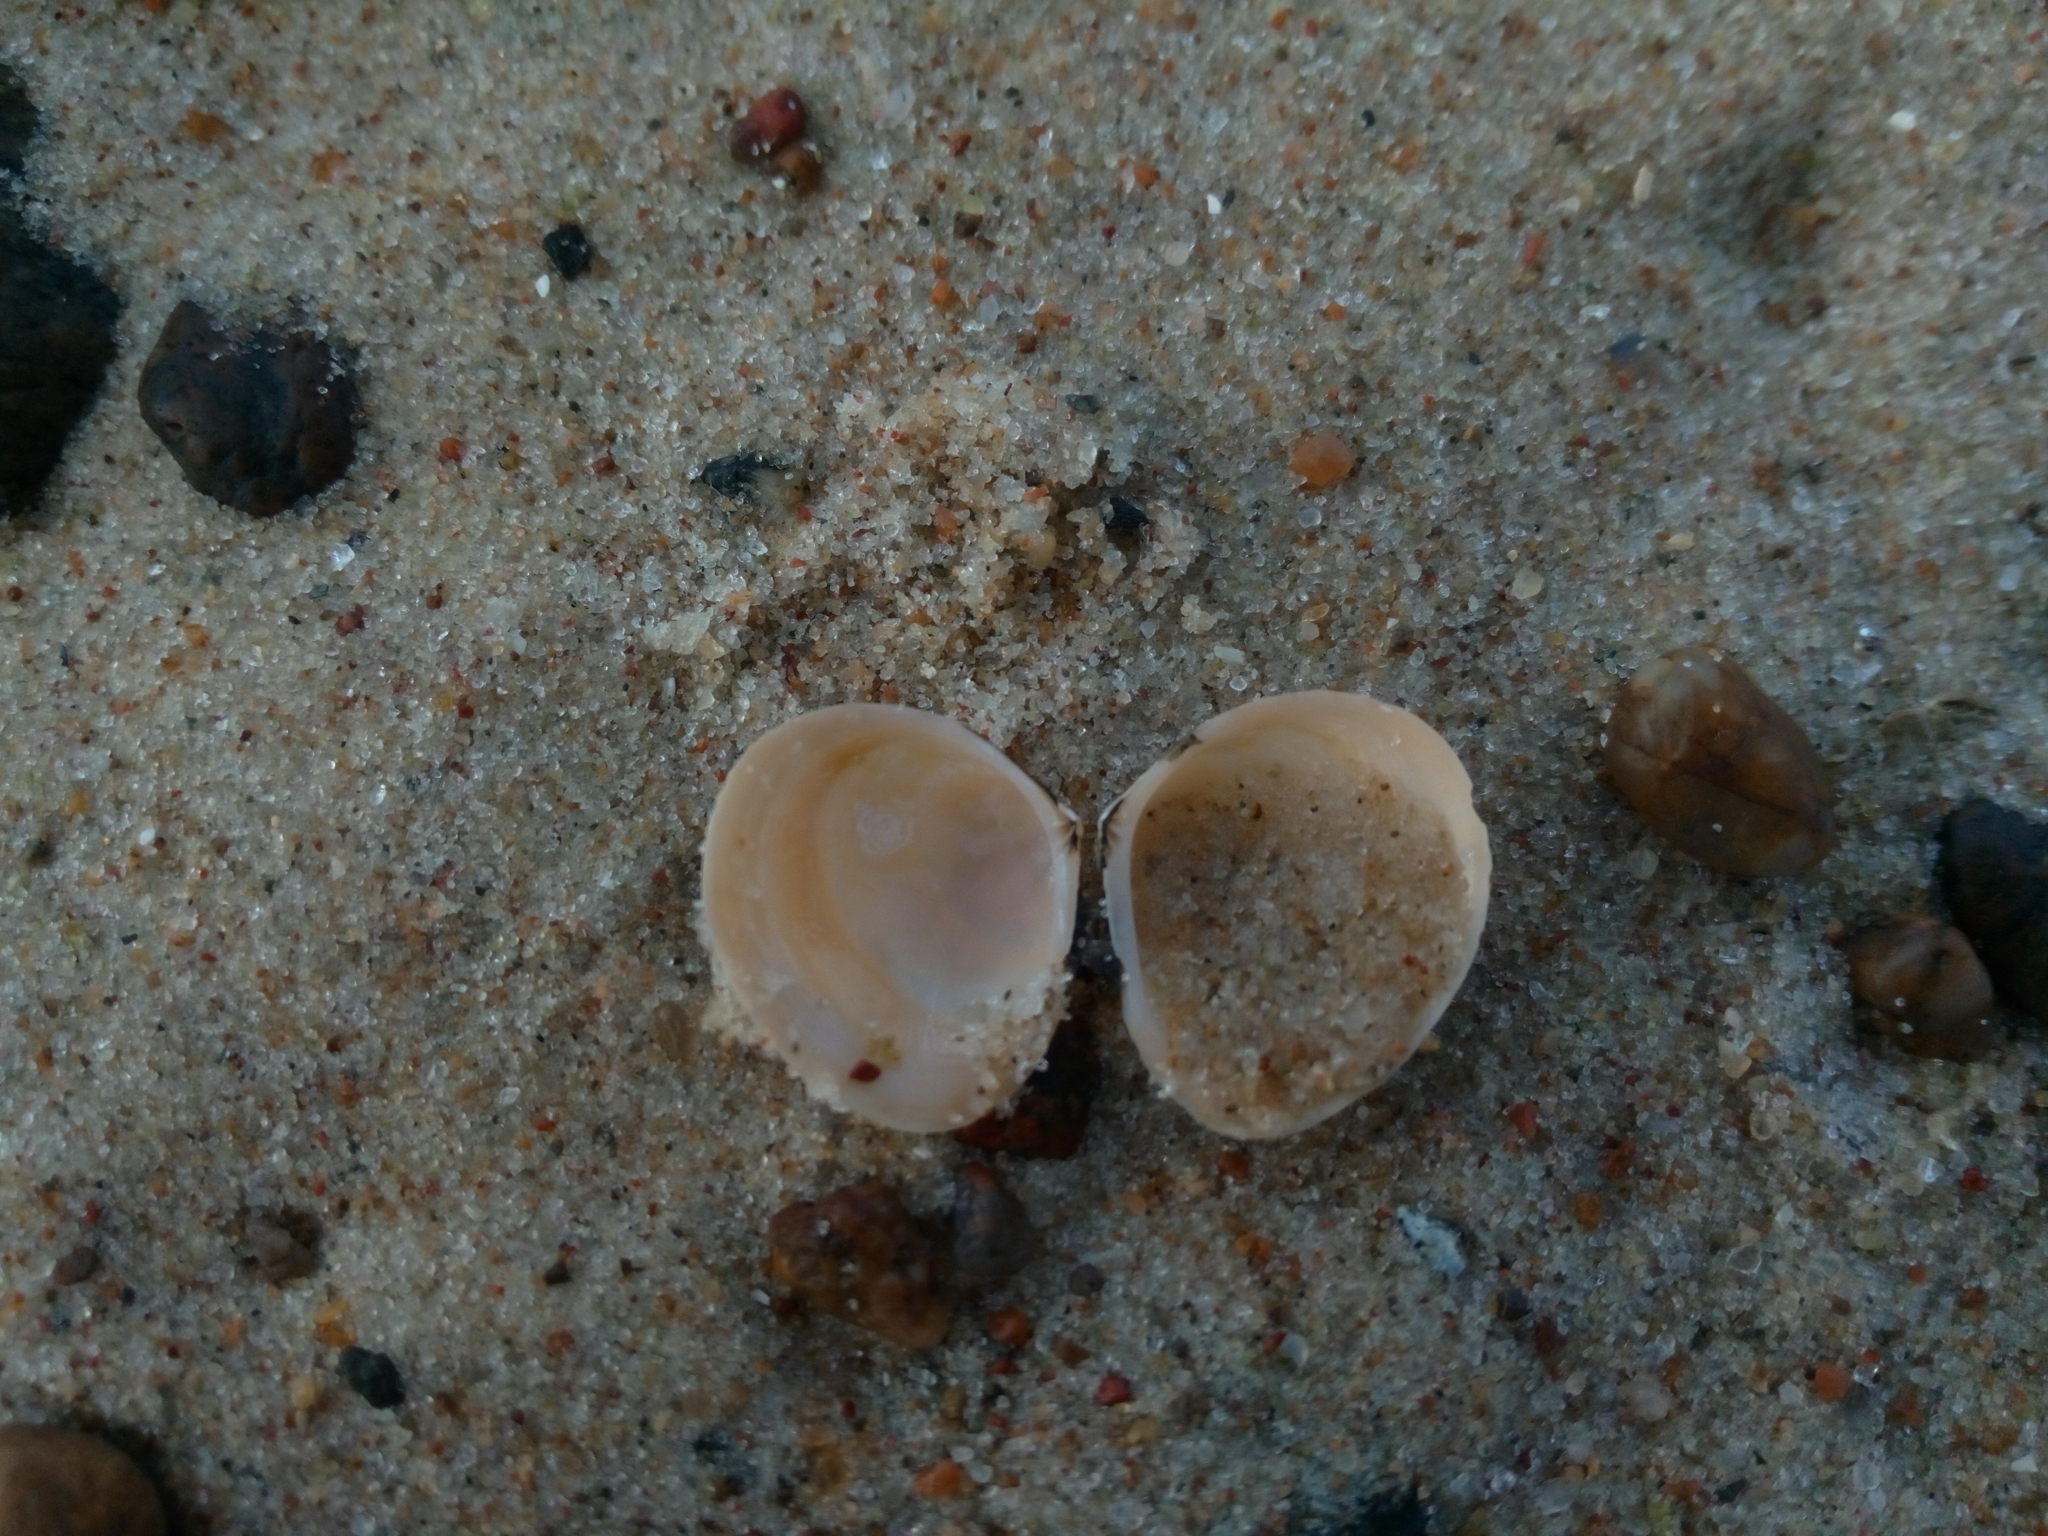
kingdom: Animalia
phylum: Mollusca
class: Bivalvia
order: Cardiida
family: Tellinidae
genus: Macoma
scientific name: Macoma balthica
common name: Baltic tellin
